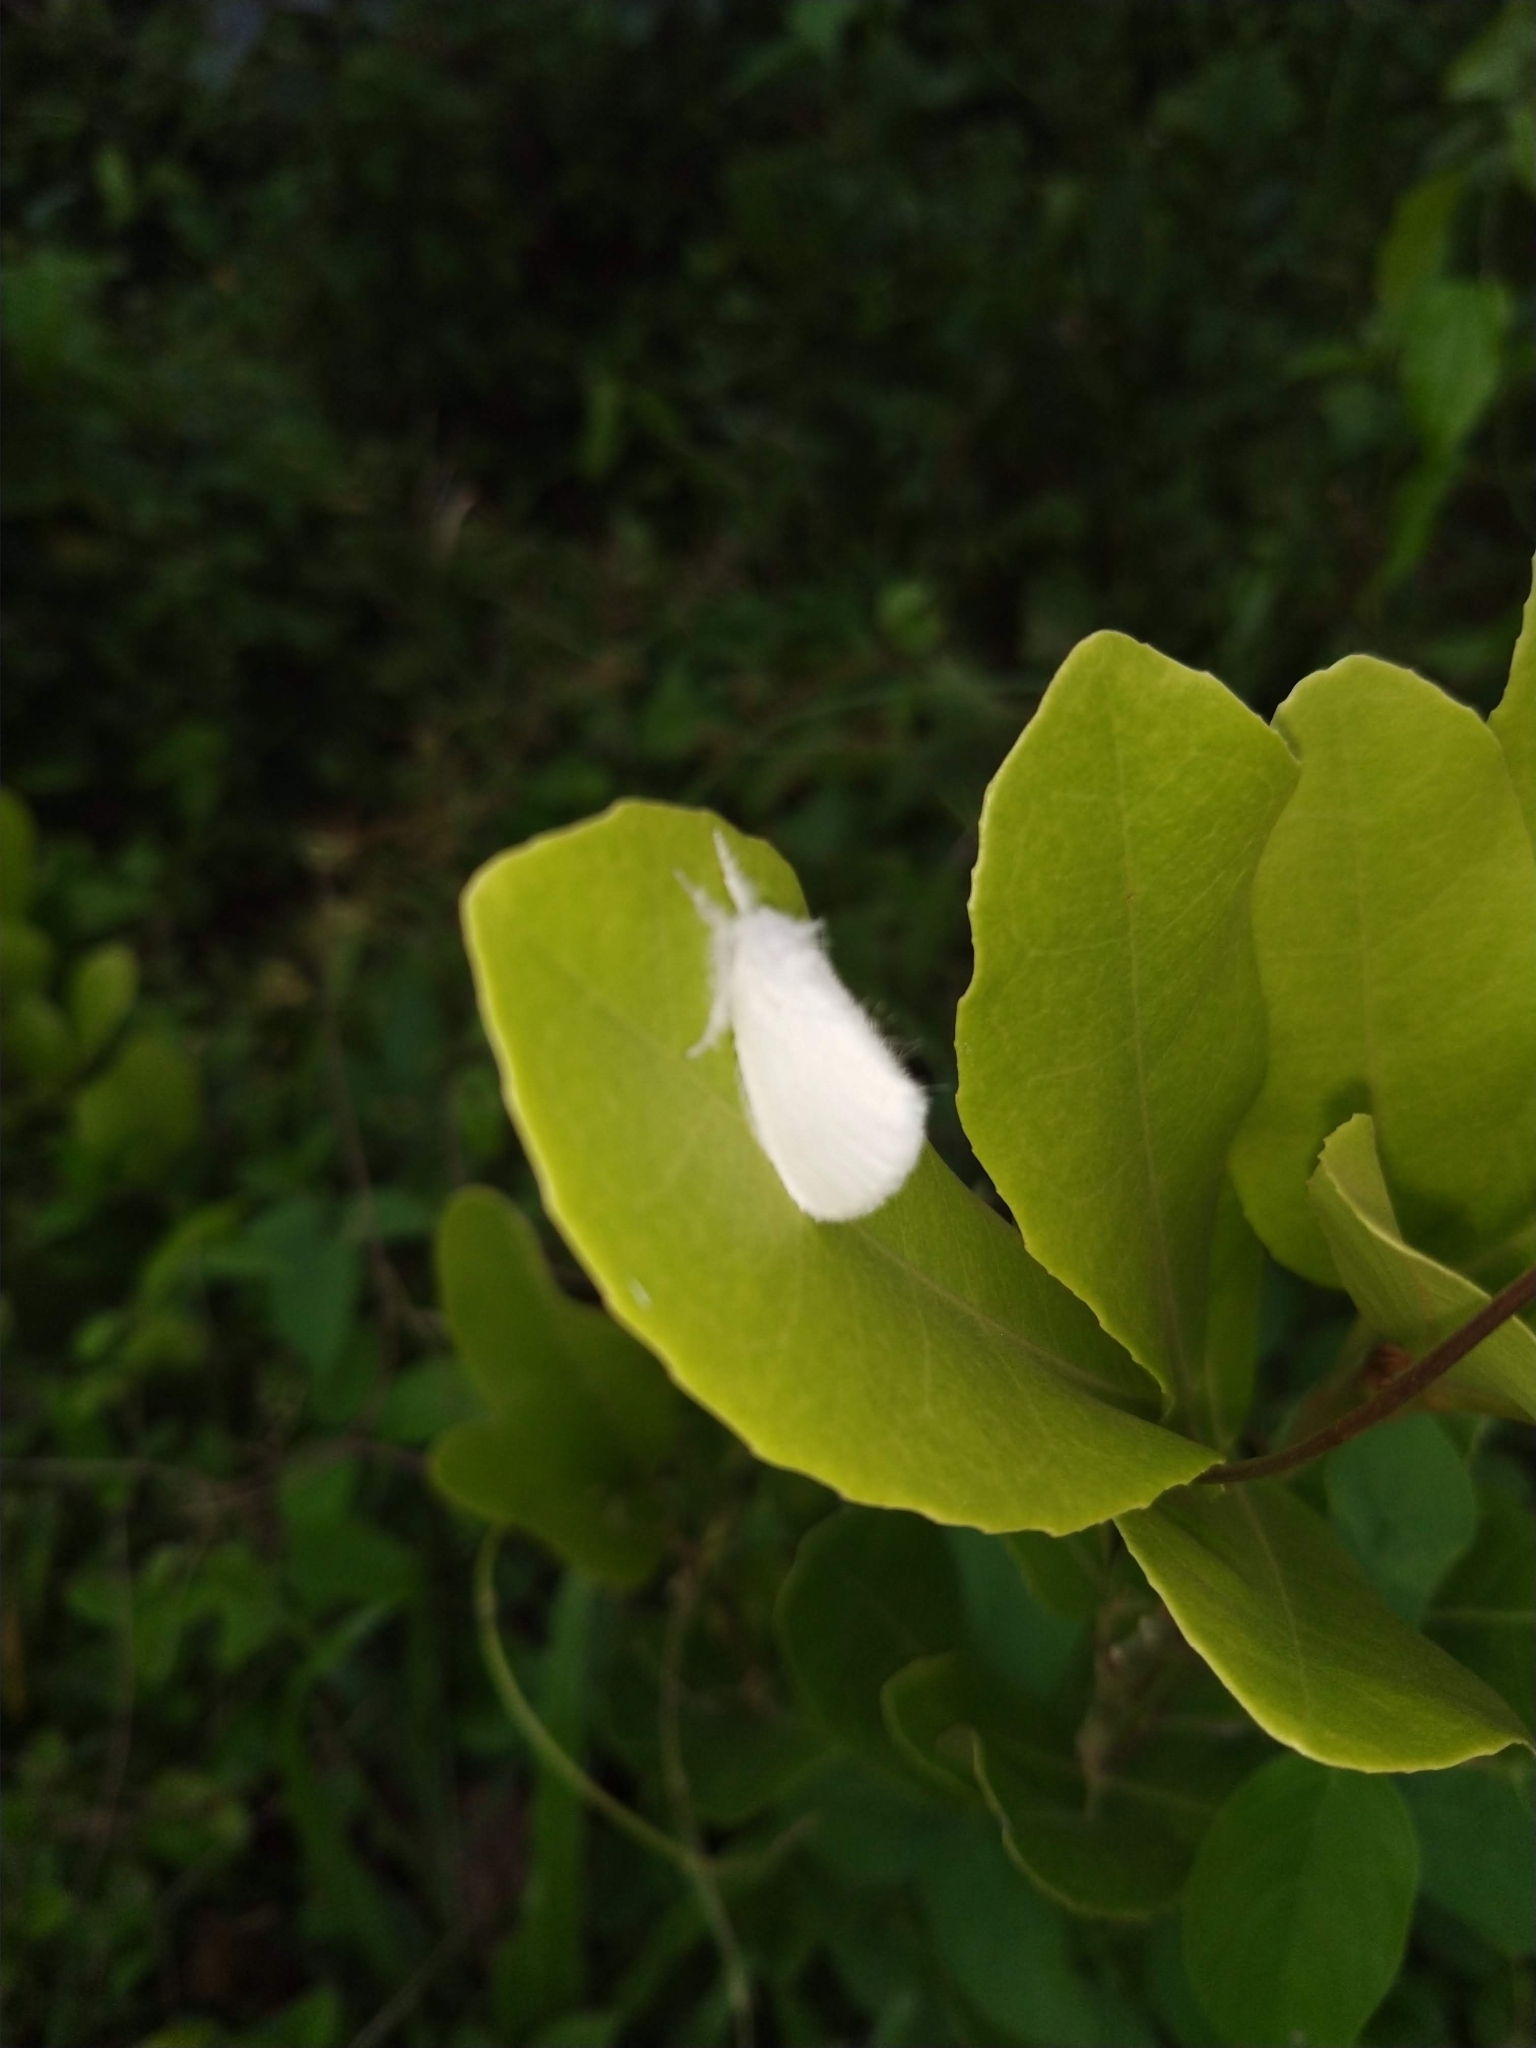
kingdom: Animalia
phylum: Arthropoda
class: Insecta
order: Lepidoptera
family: Erebidae
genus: Sphrageidus
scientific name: Sphrageidus similis
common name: Yellow-tail
